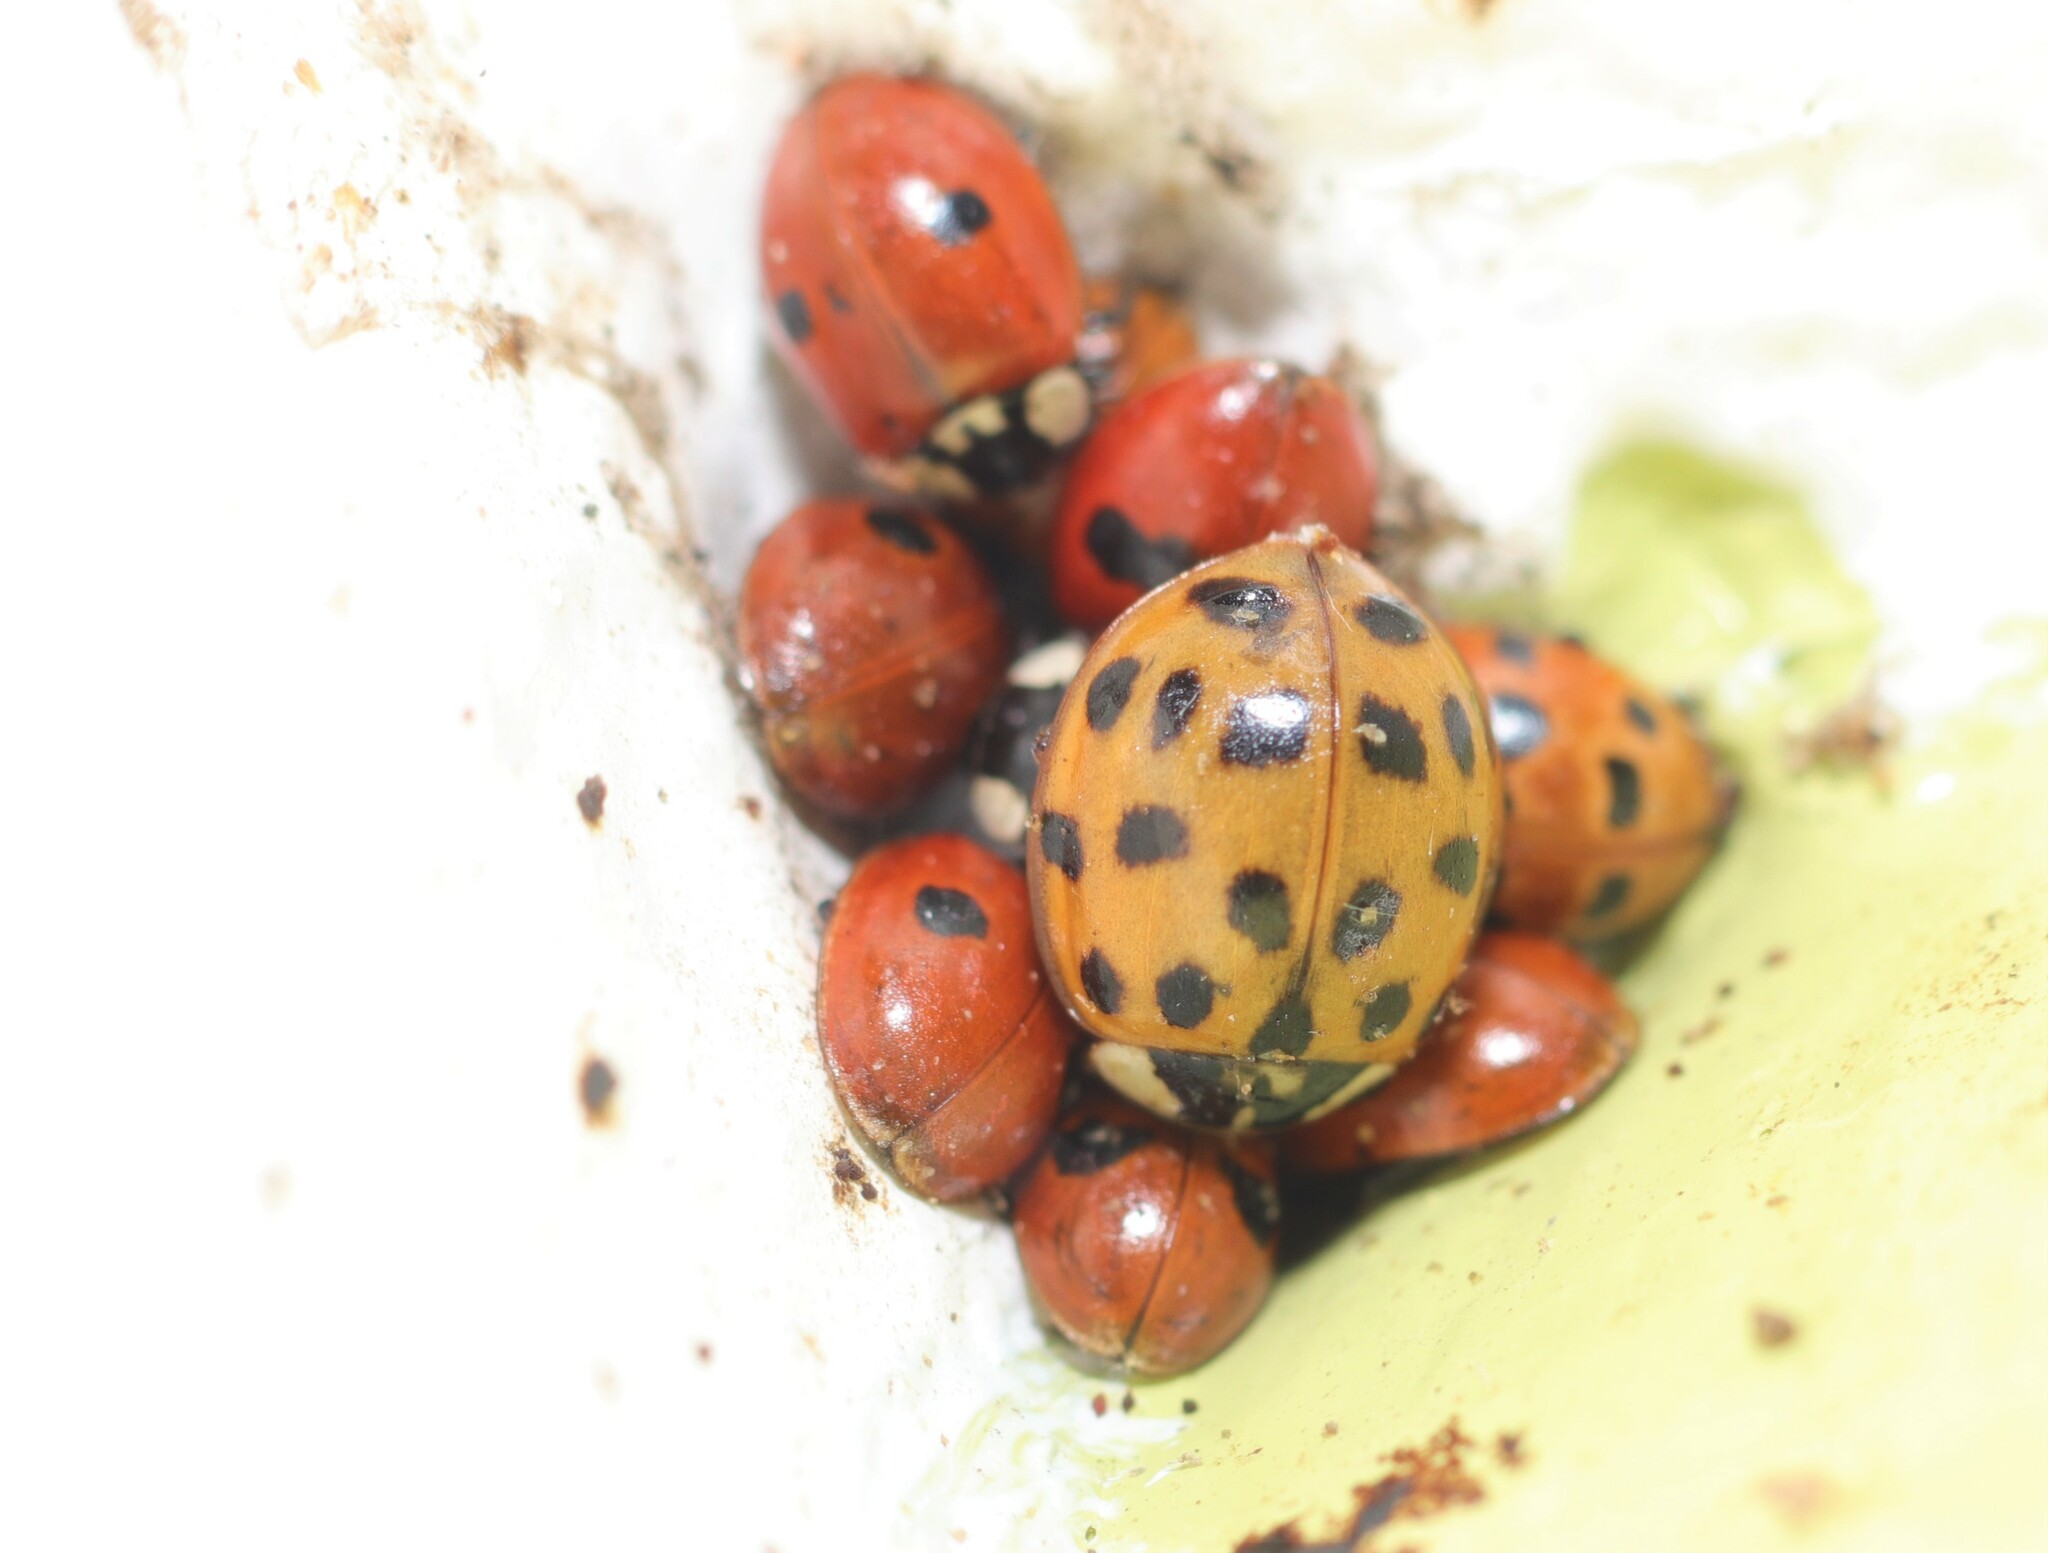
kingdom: Animalia
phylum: Arthropoda
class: Insecta
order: Coleoptera
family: Coccinellidae
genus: Harmonia
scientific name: Harmonia axyridis
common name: Harlequin ladybird
